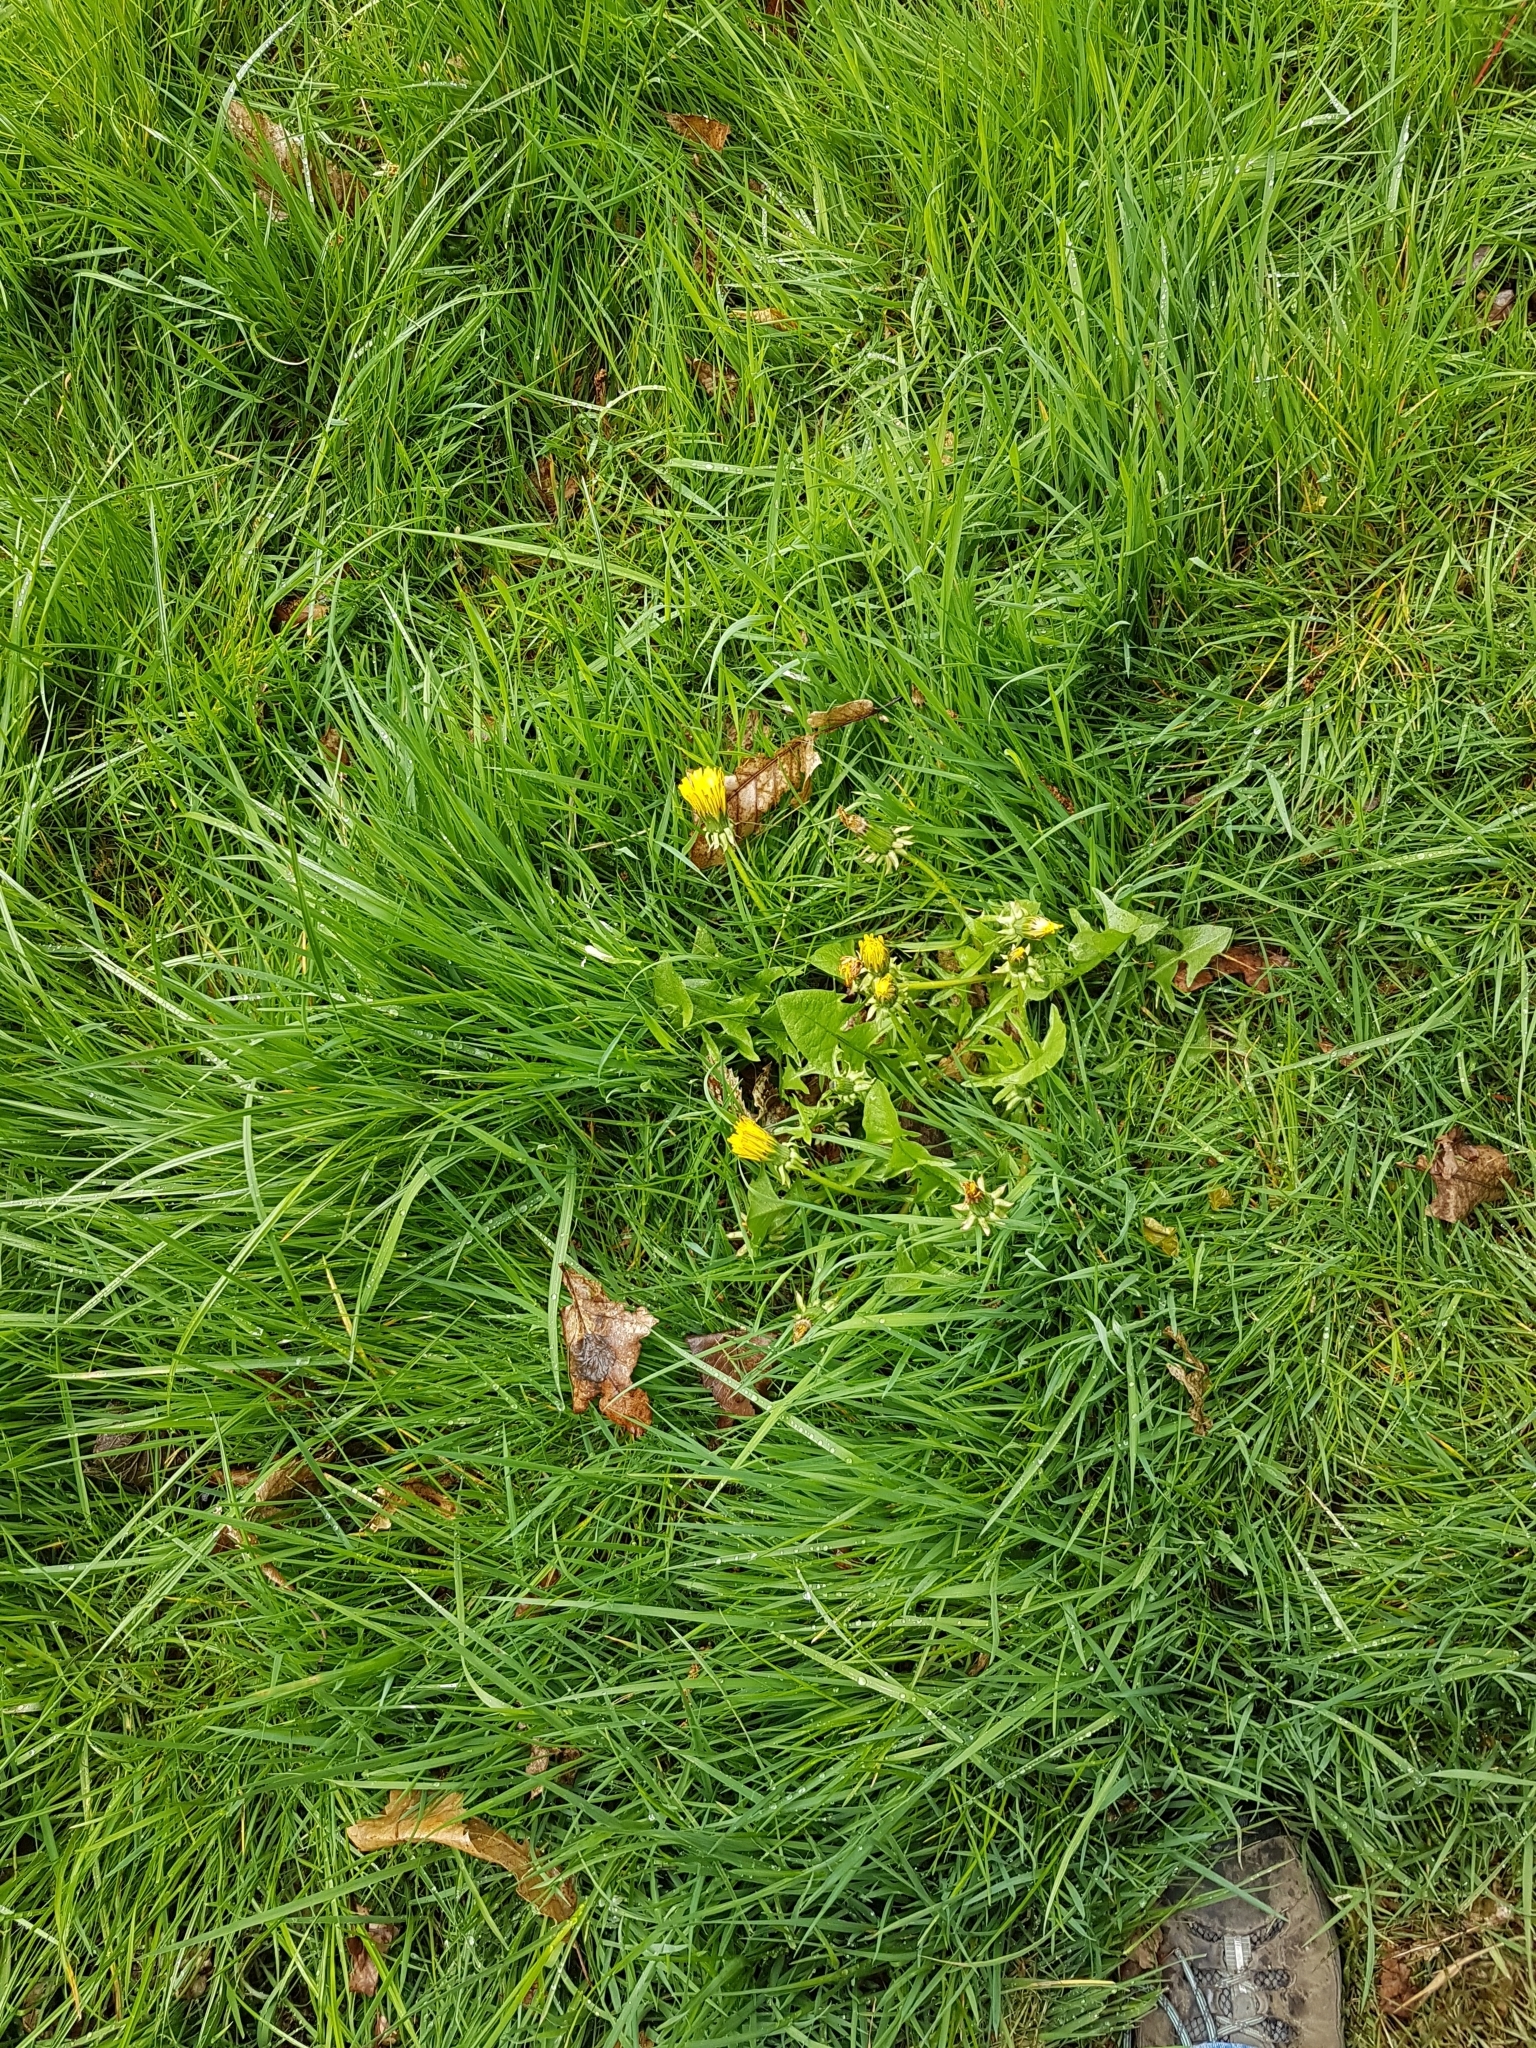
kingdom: Plantae
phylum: Tracheophyta
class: Magnoliopsida
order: Asterales
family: Asteraceae
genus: Taraxacum
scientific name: Taraxacum officinale
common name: Common dandelion
